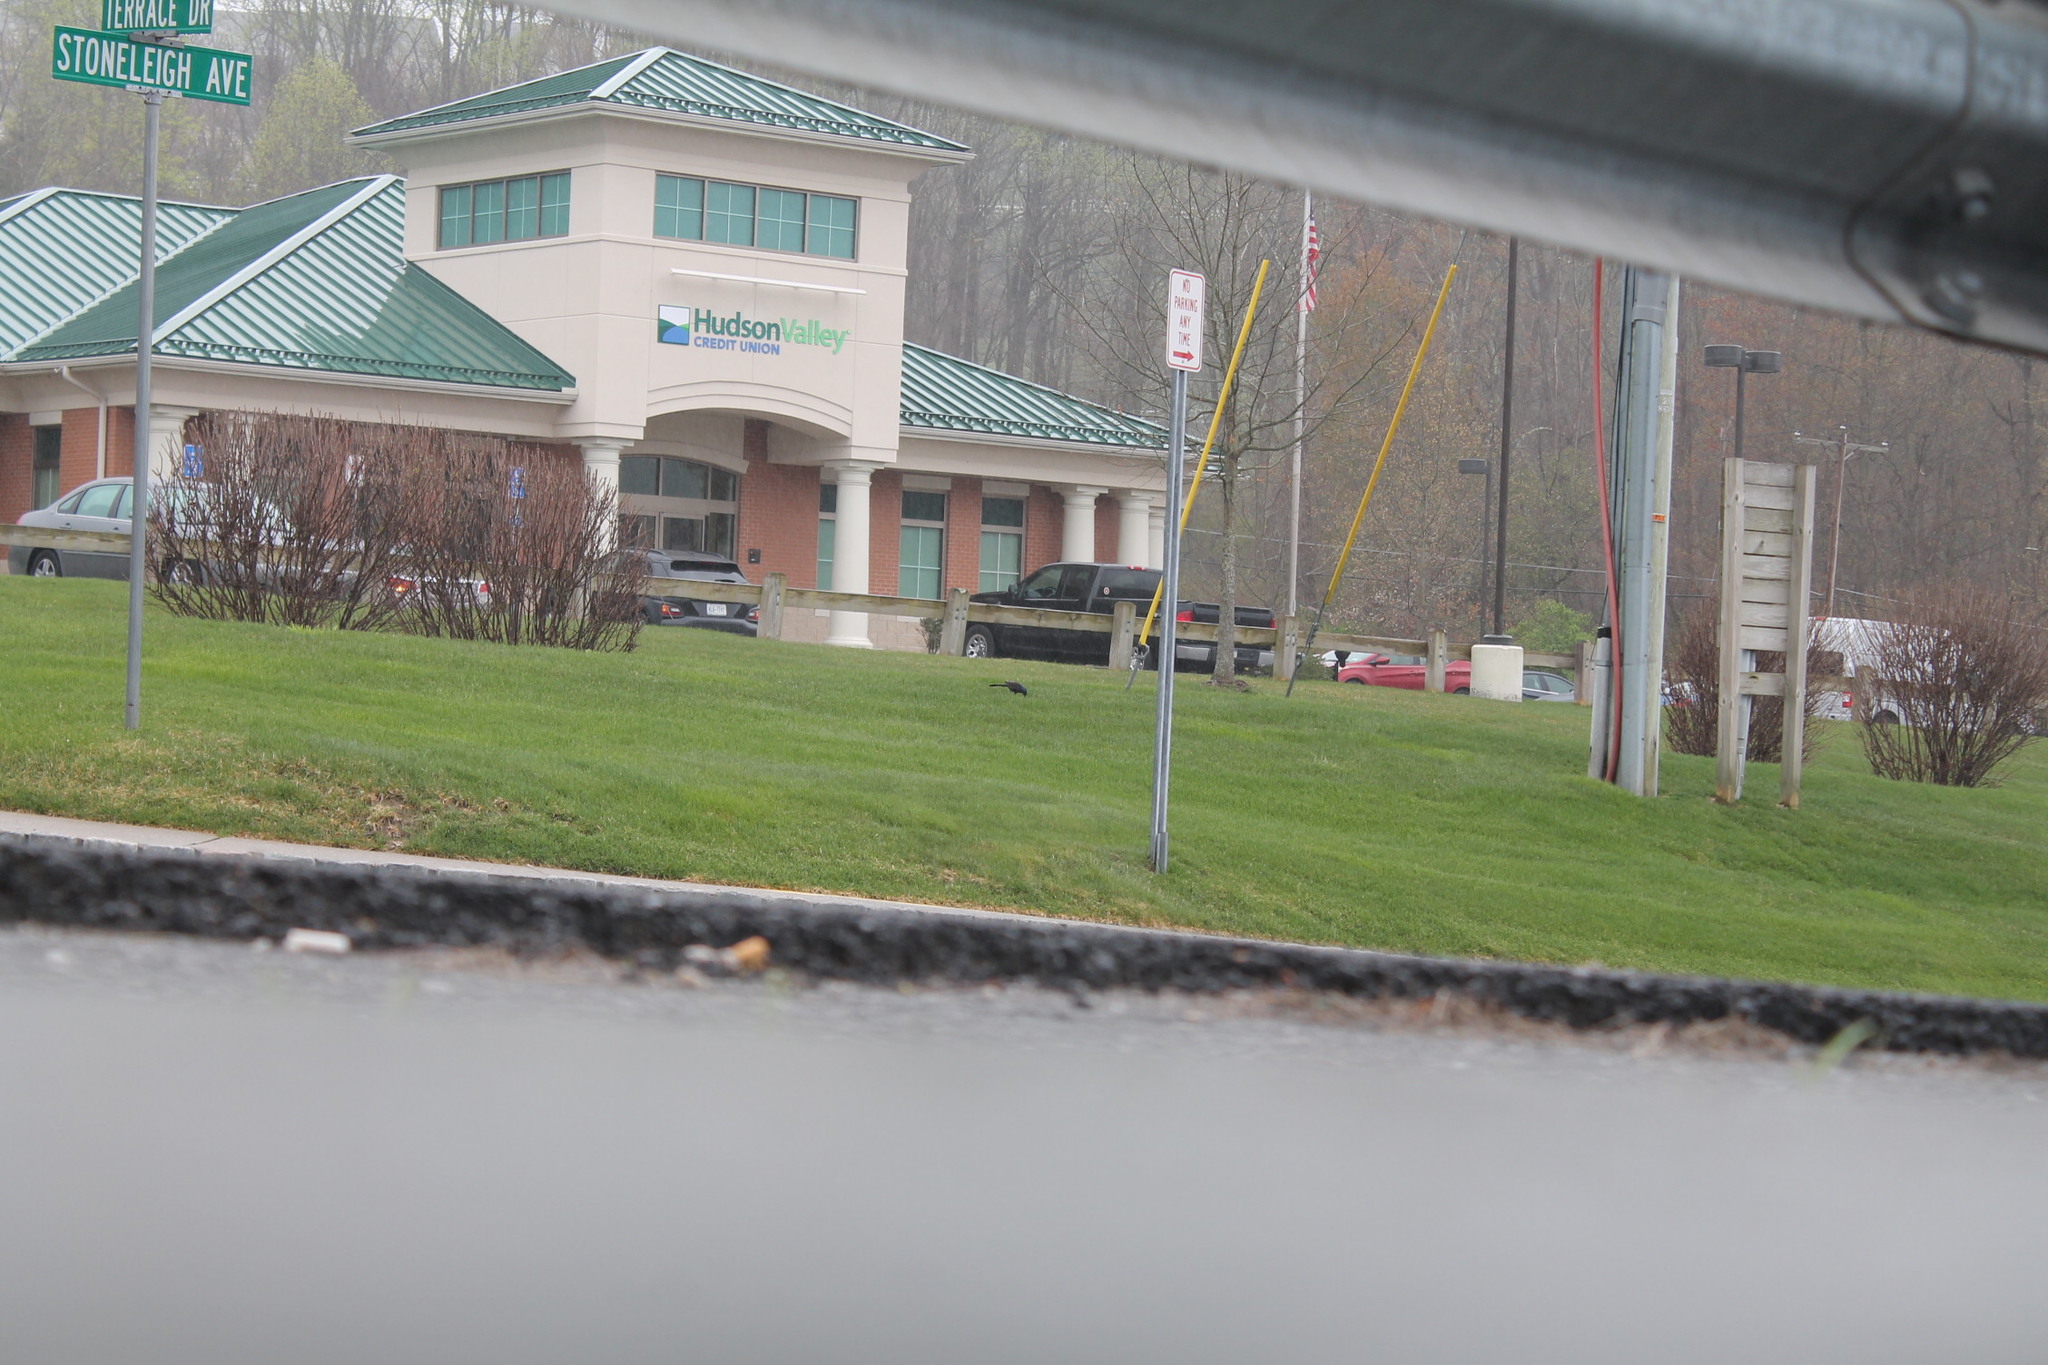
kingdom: Animalia
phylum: Chordata
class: Aves
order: Passeriformes
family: Icteridae
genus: Quiscalus
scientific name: Quiscalus quiscula
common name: Common grackle
